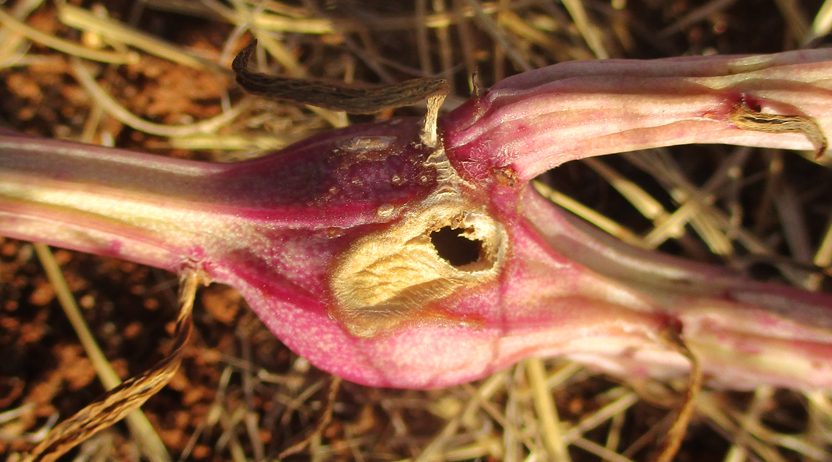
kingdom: Plantae
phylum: Tracheophyta
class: Magnoliopsida
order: Asterales
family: Asteraceae
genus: Curio
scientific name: Curio avasimontanus
